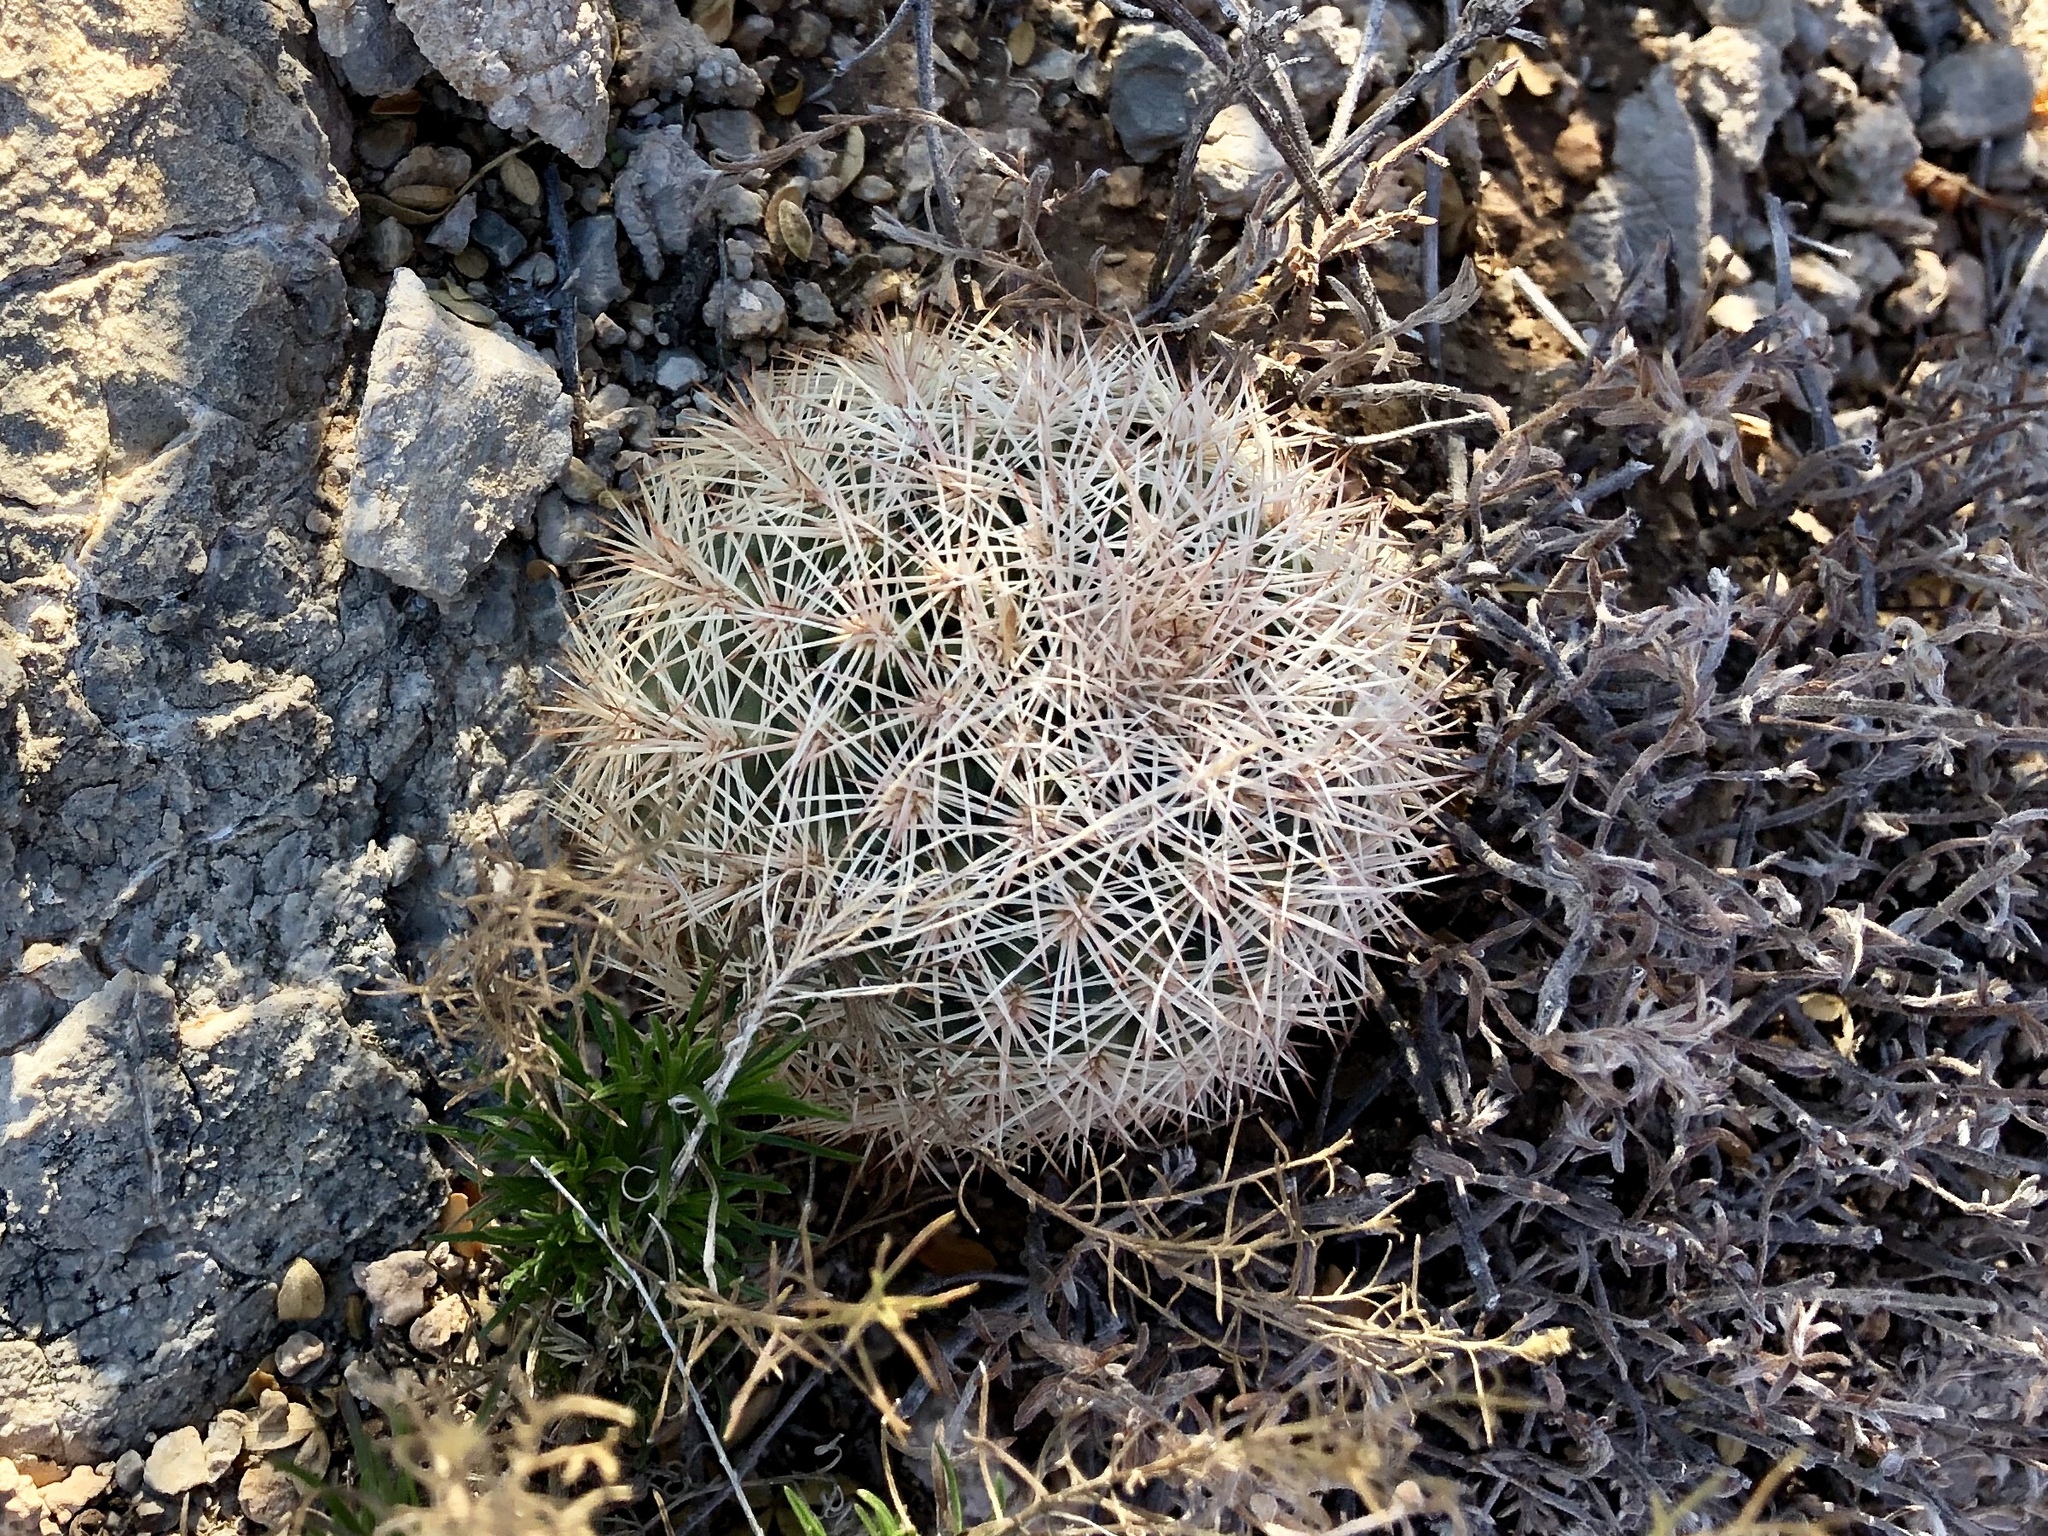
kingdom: Plantae
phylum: Tracheophyta
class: Magnoliopsida
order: Caryophyllales
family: Cactaceae
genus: Echinocereus
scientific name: Echinocereus dasyacanthus
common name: Spiny hedgehog cactus
